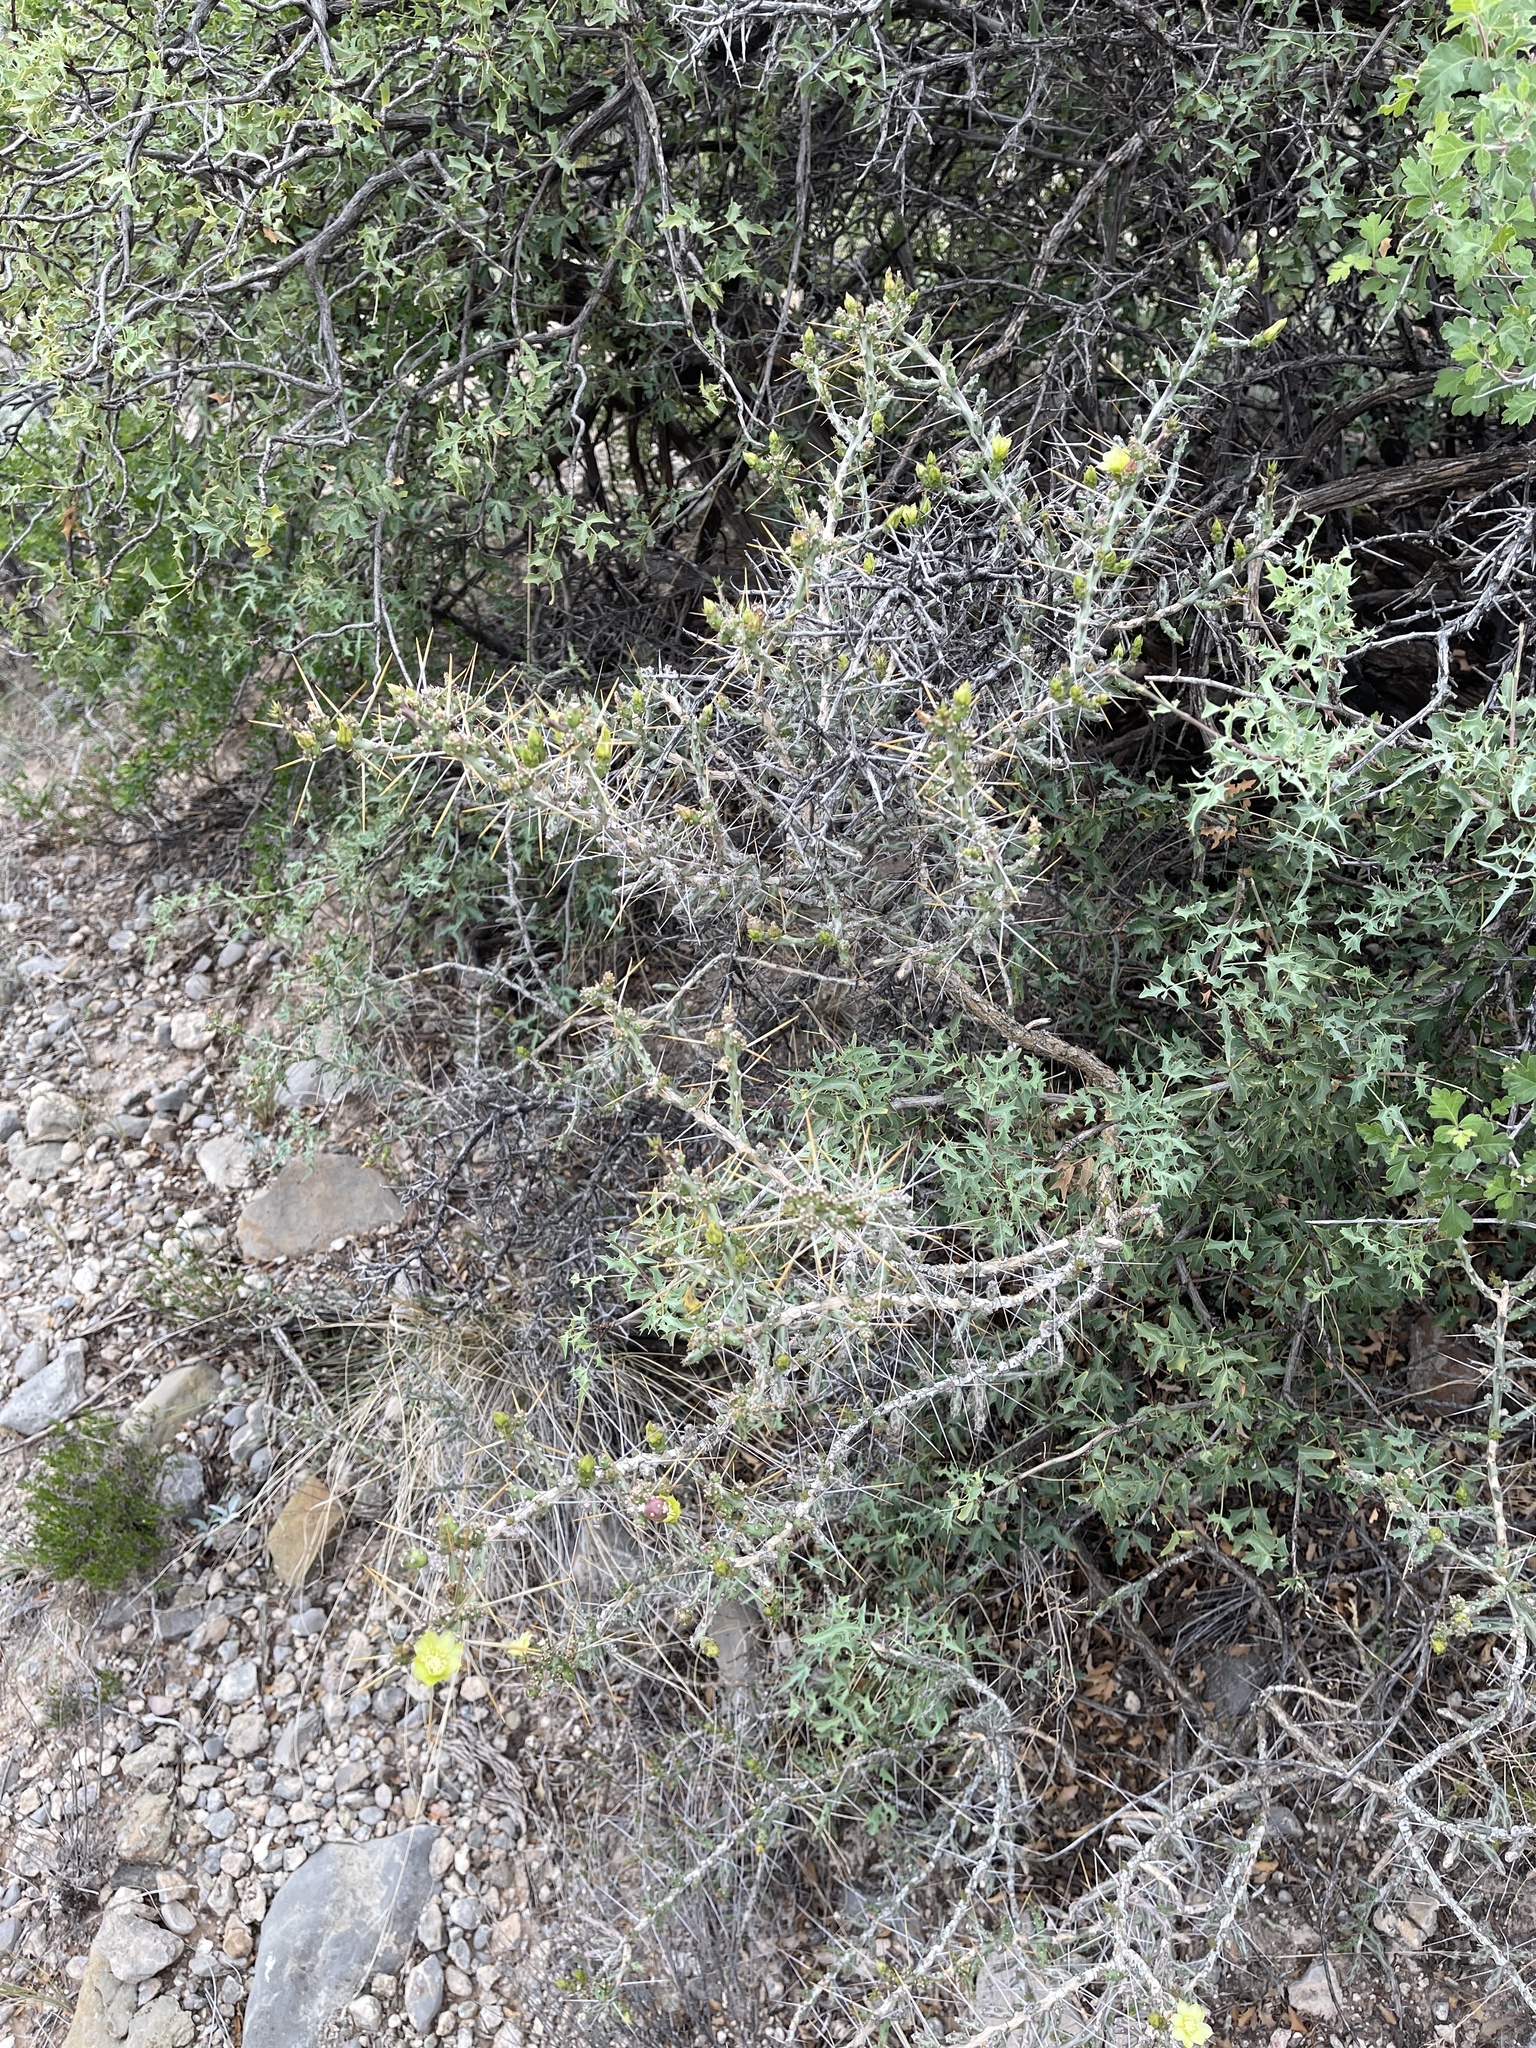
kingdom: Plantae
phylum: Tracheophyta
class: Magnoliopsida
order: Caryophyllales
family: Cactaceae
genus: Cylindropuntia
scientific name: Cylindropuntia leptocaulis
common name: Christmas cactus
